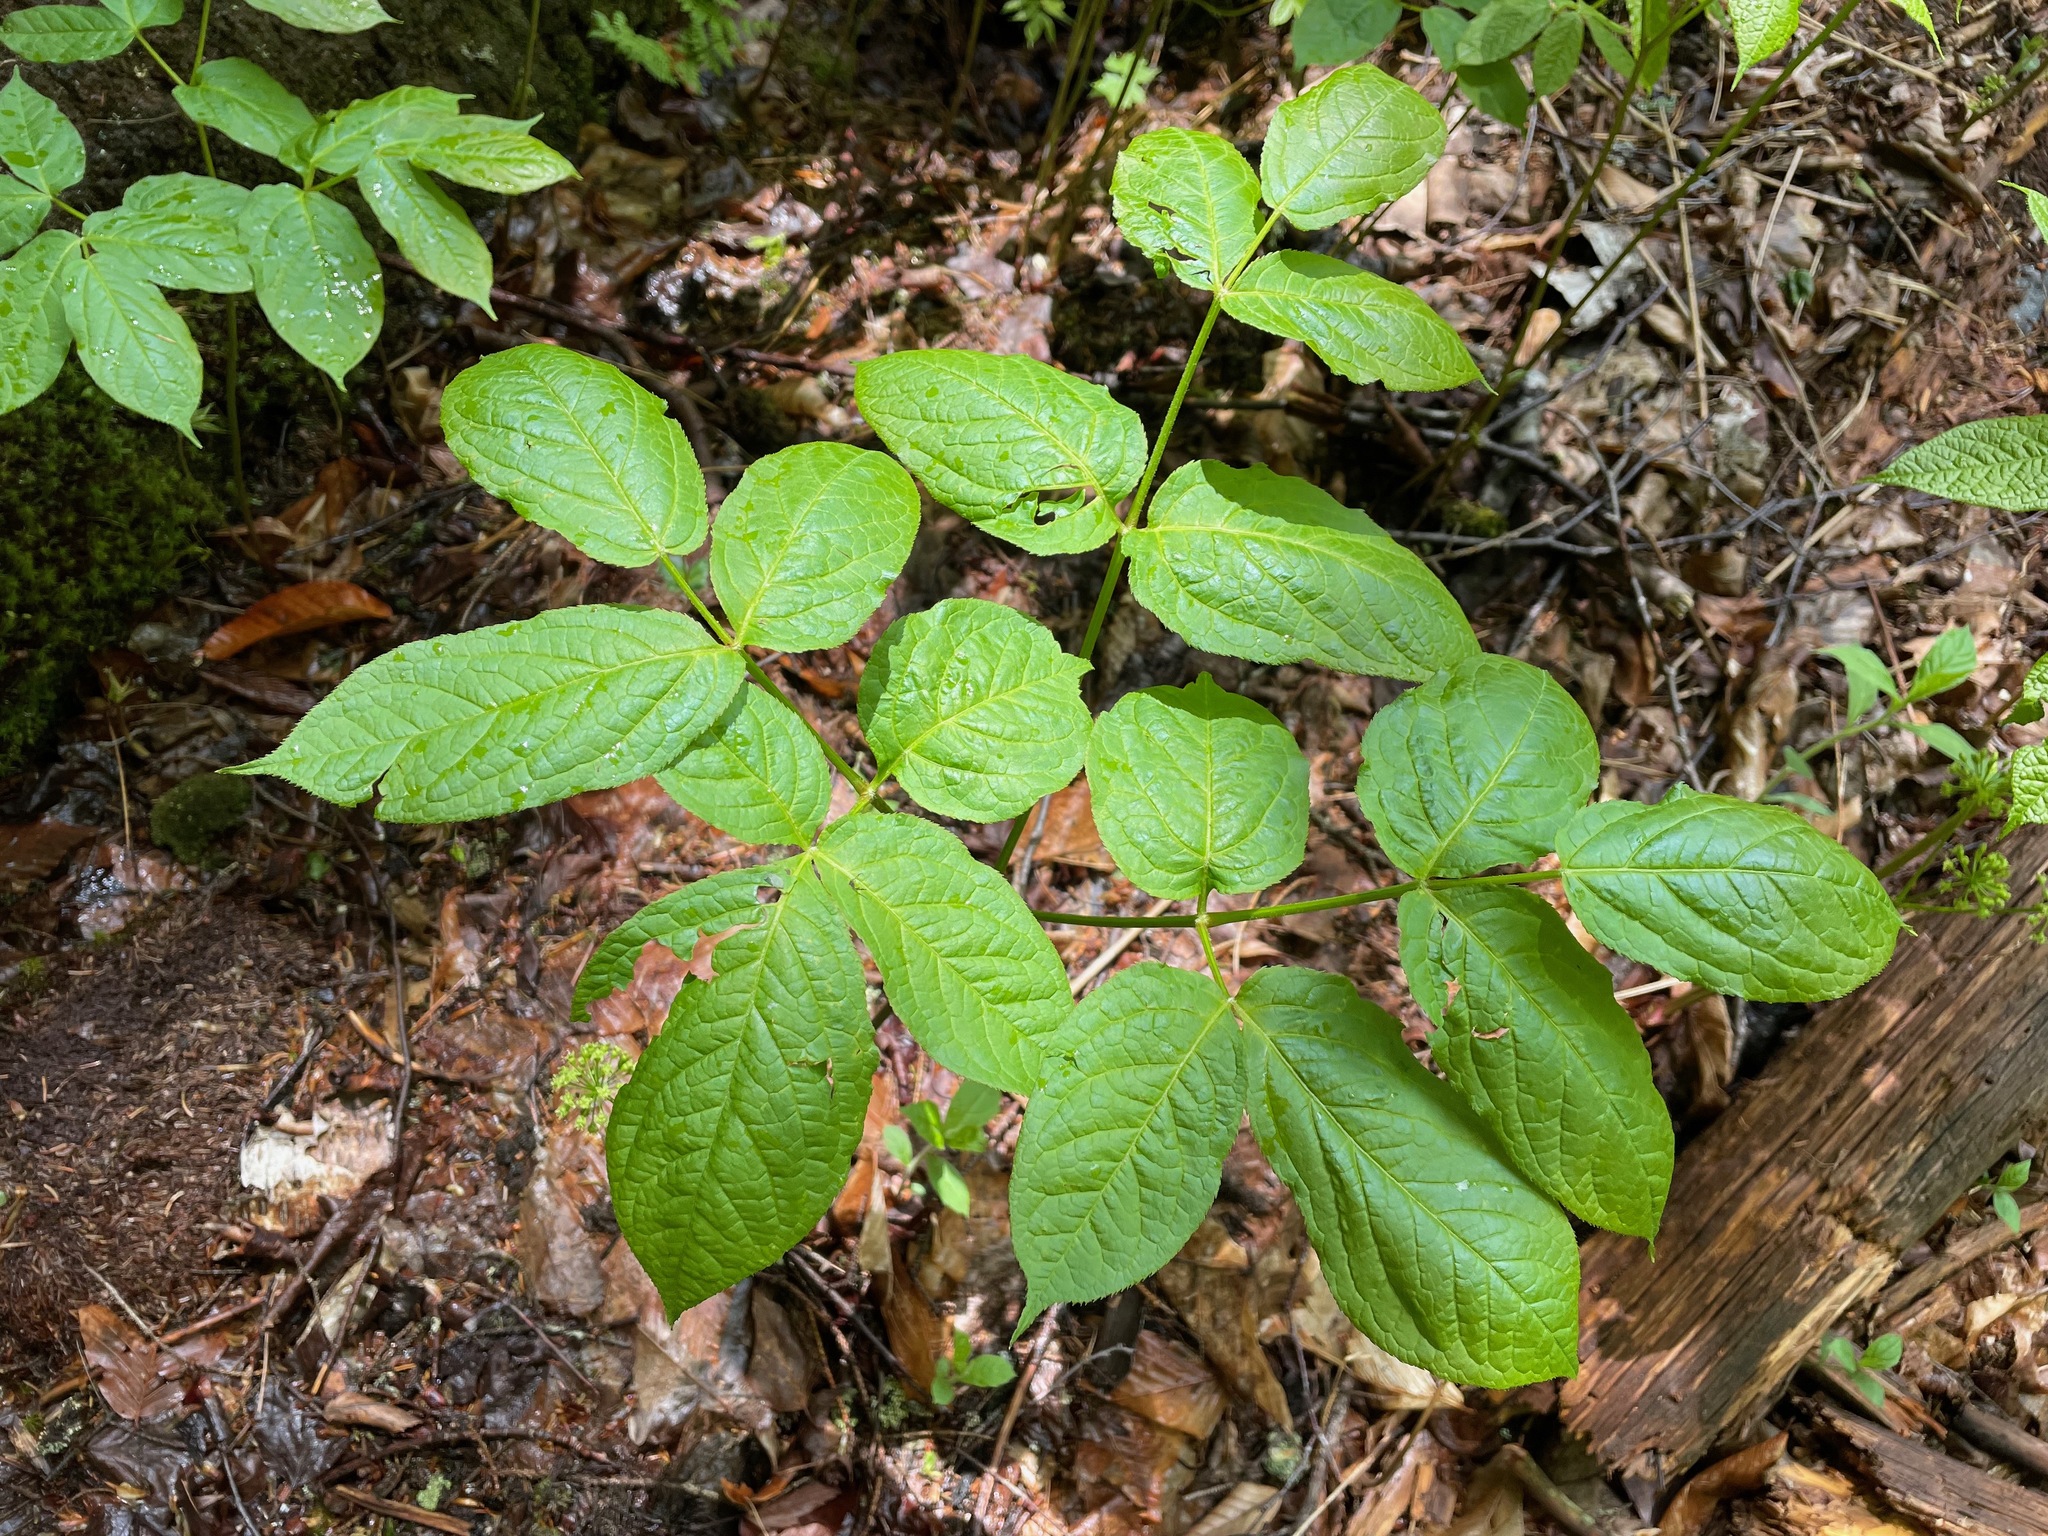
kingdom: Plantae
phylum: Tracheophyta
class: Magnoliopsida
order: Apiales
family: Araliaceae
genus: Aralia
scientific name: Aralia nudicaulis
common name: Wild sarsaparilla
